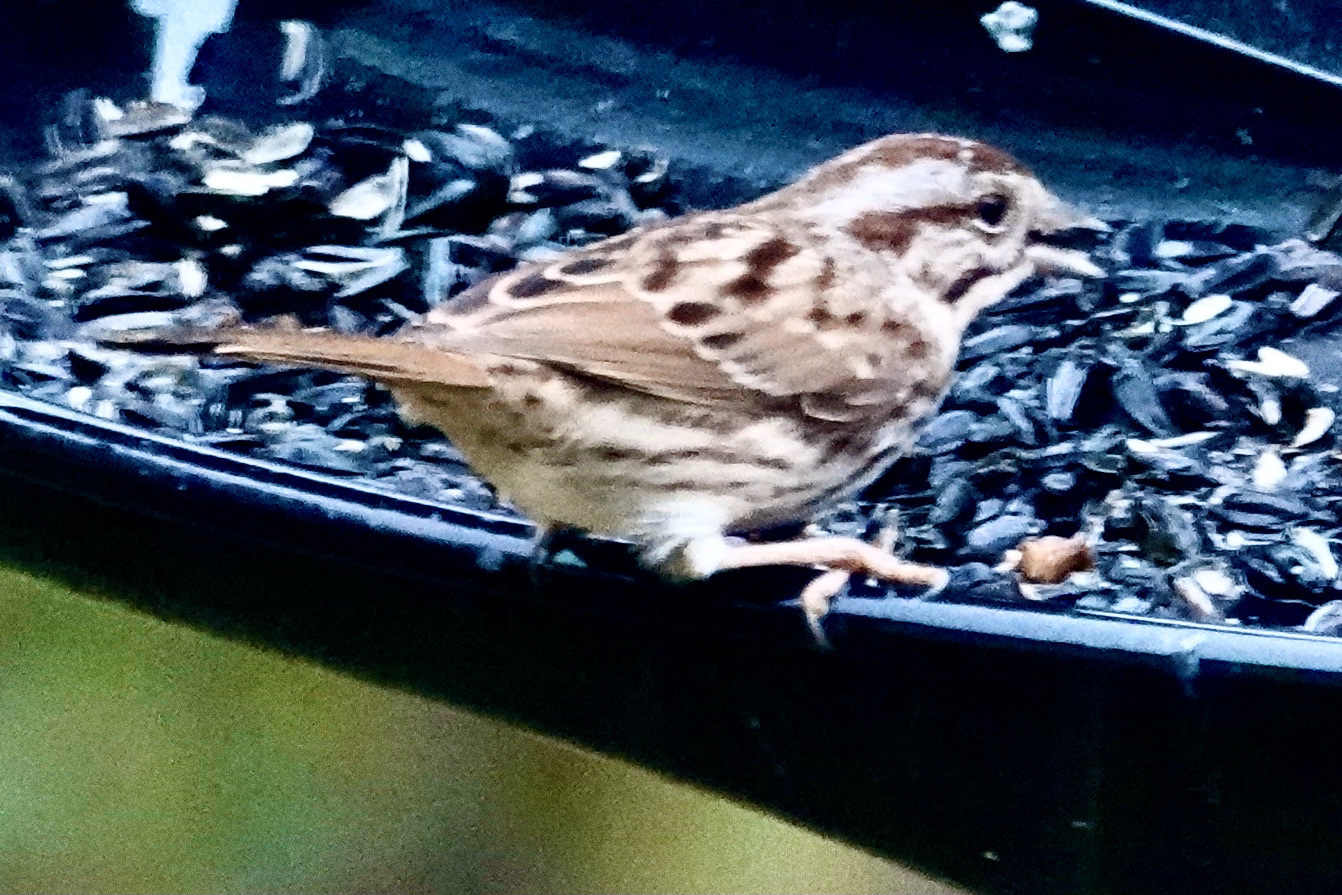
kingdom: Animalia
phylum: Chordata
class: Aves
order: Passeriformes
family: Passerellidae
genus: Melospiza
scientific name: Melospiza melodia
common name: Song sparrow
